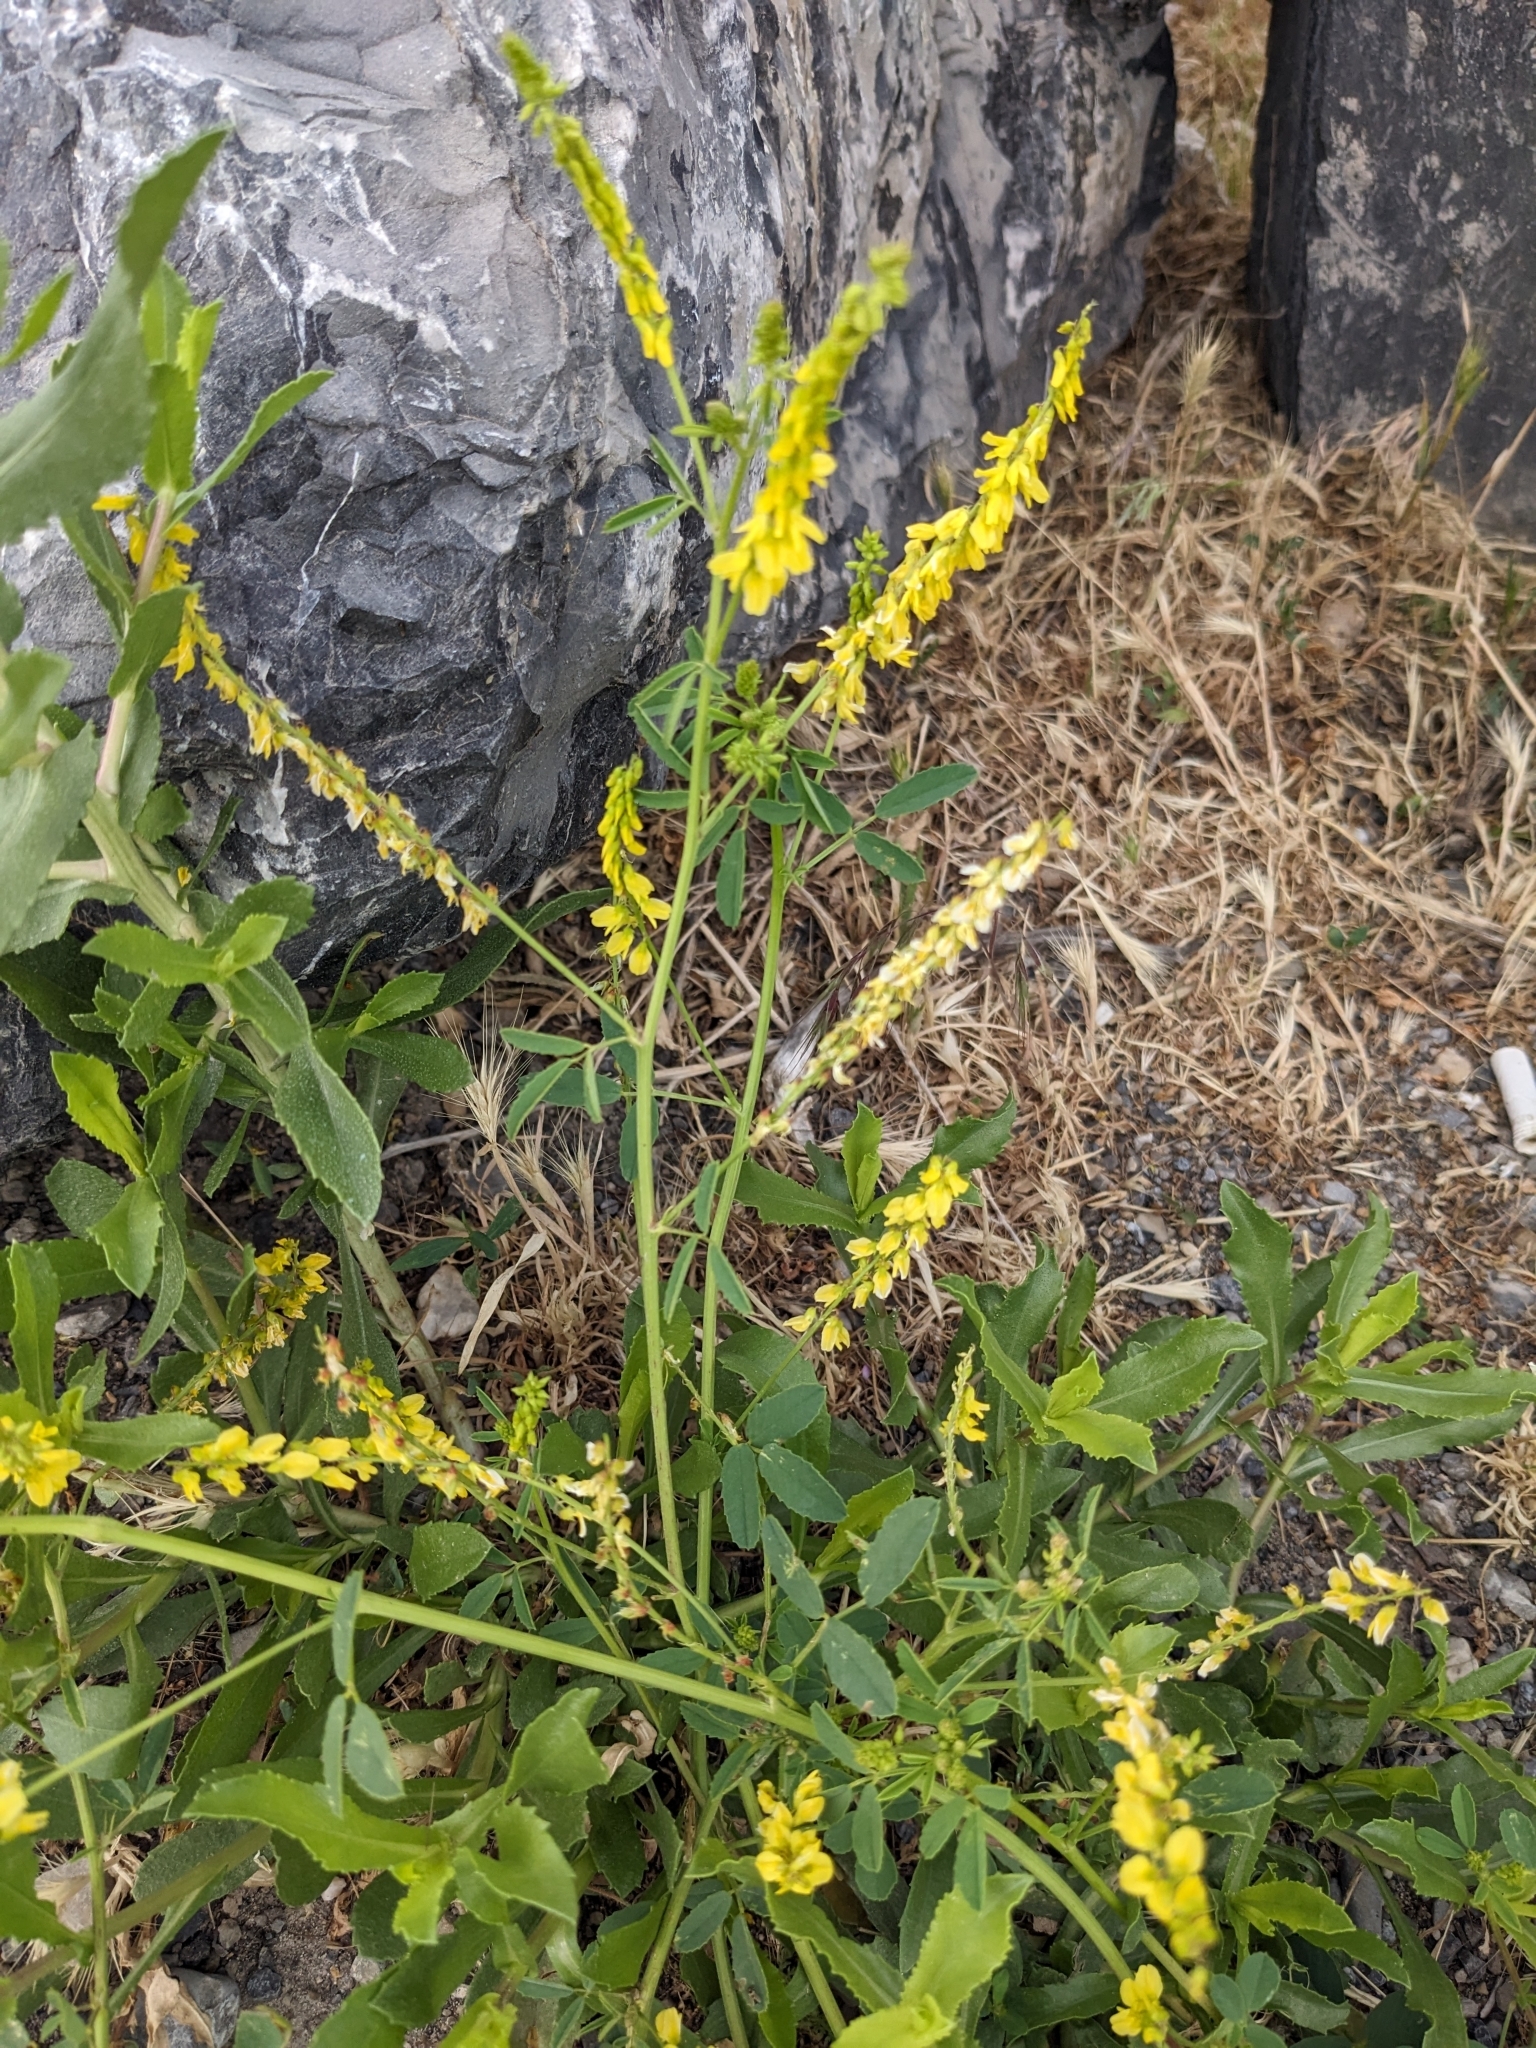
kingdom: Plantae
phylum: Tracheophyta
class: Magnoliopsida
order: Fabales
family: Fabaceae
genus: Melilotus
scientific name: Melilotus officinalis
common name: Sweetclover
